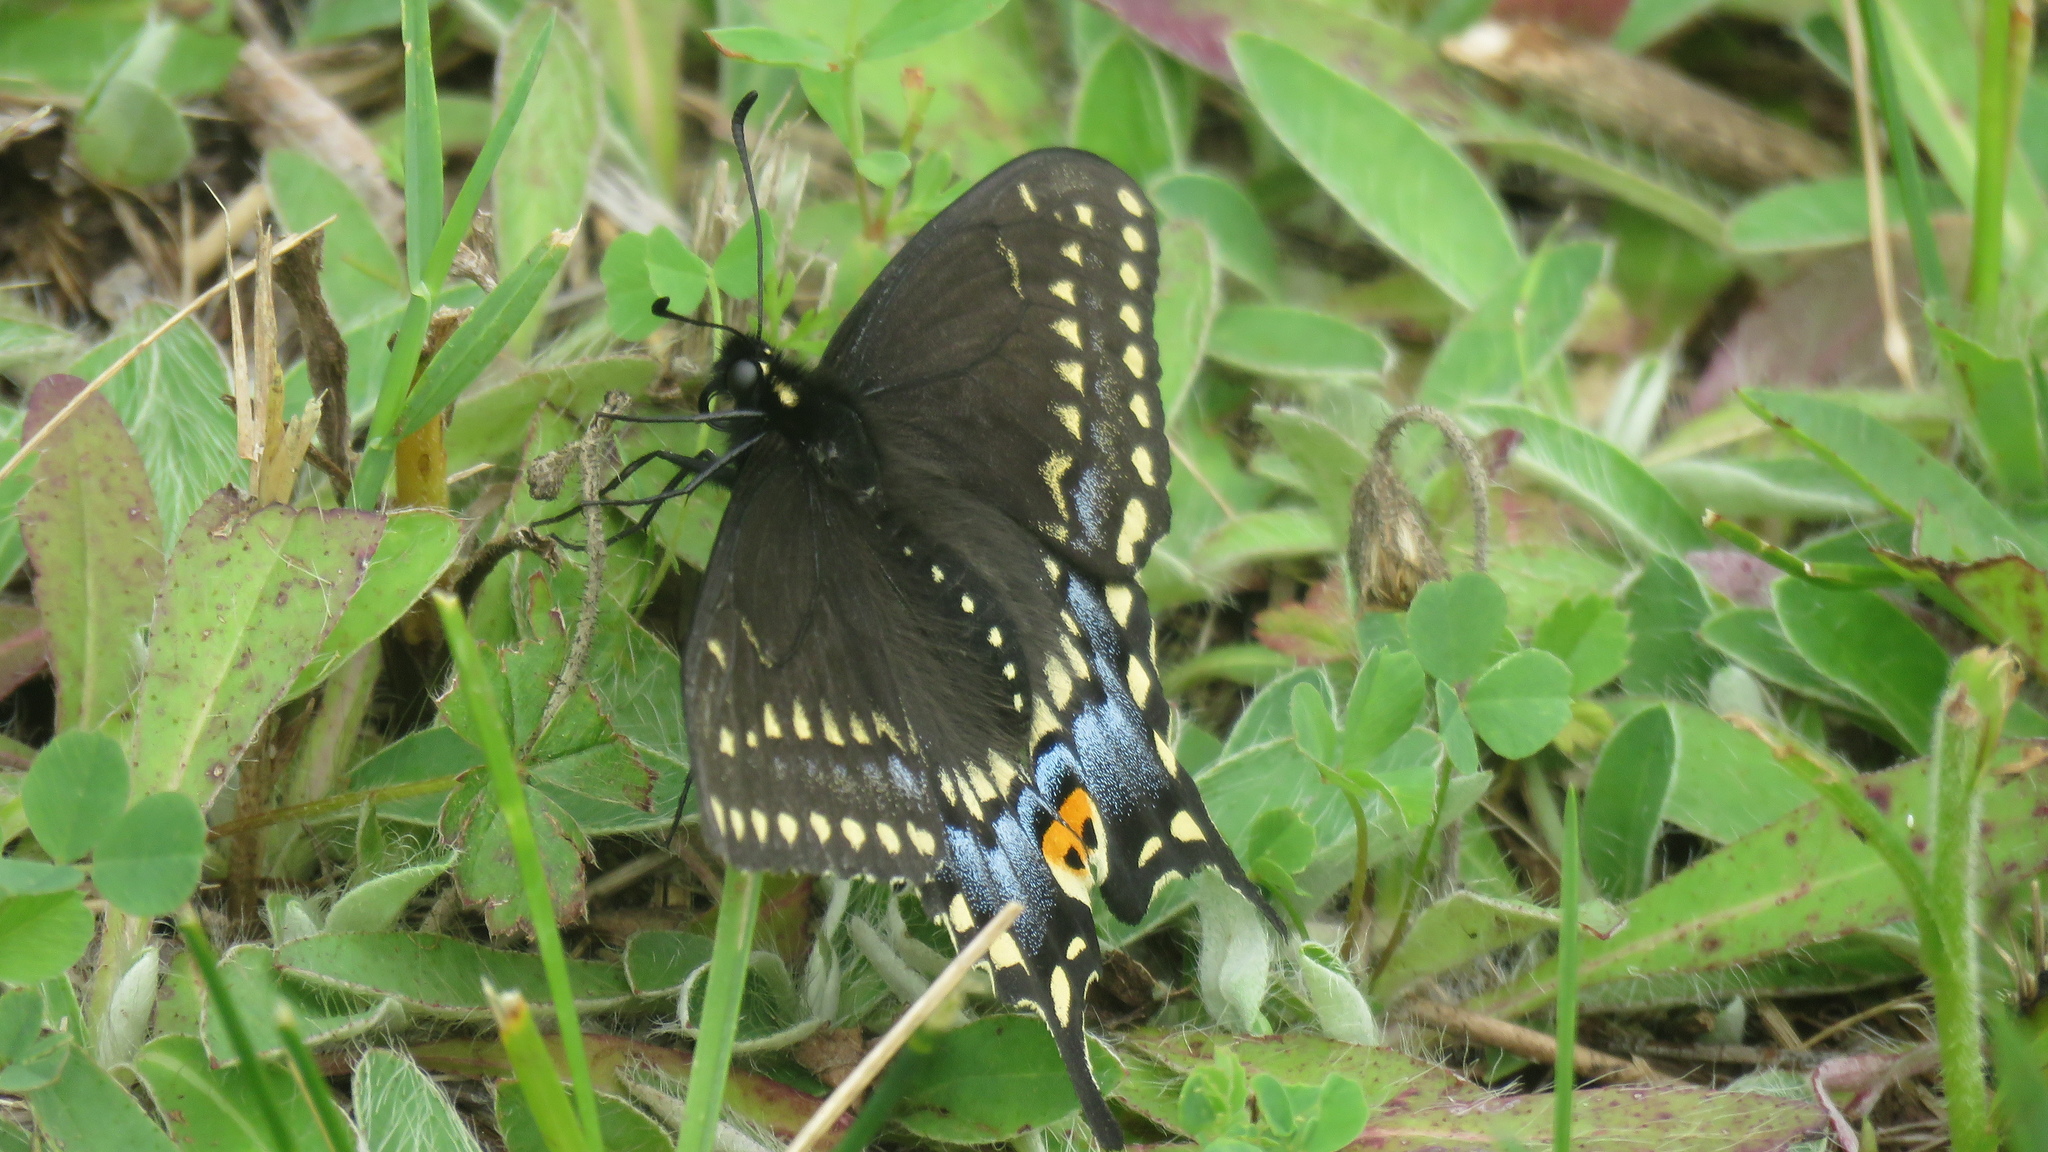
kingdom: Animalia
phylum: Arthropoda
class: Insecta
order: Lepidoptera
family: Papilionidae
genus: Papilio
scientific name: Papilio polyxenes
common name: Black swallowtail
